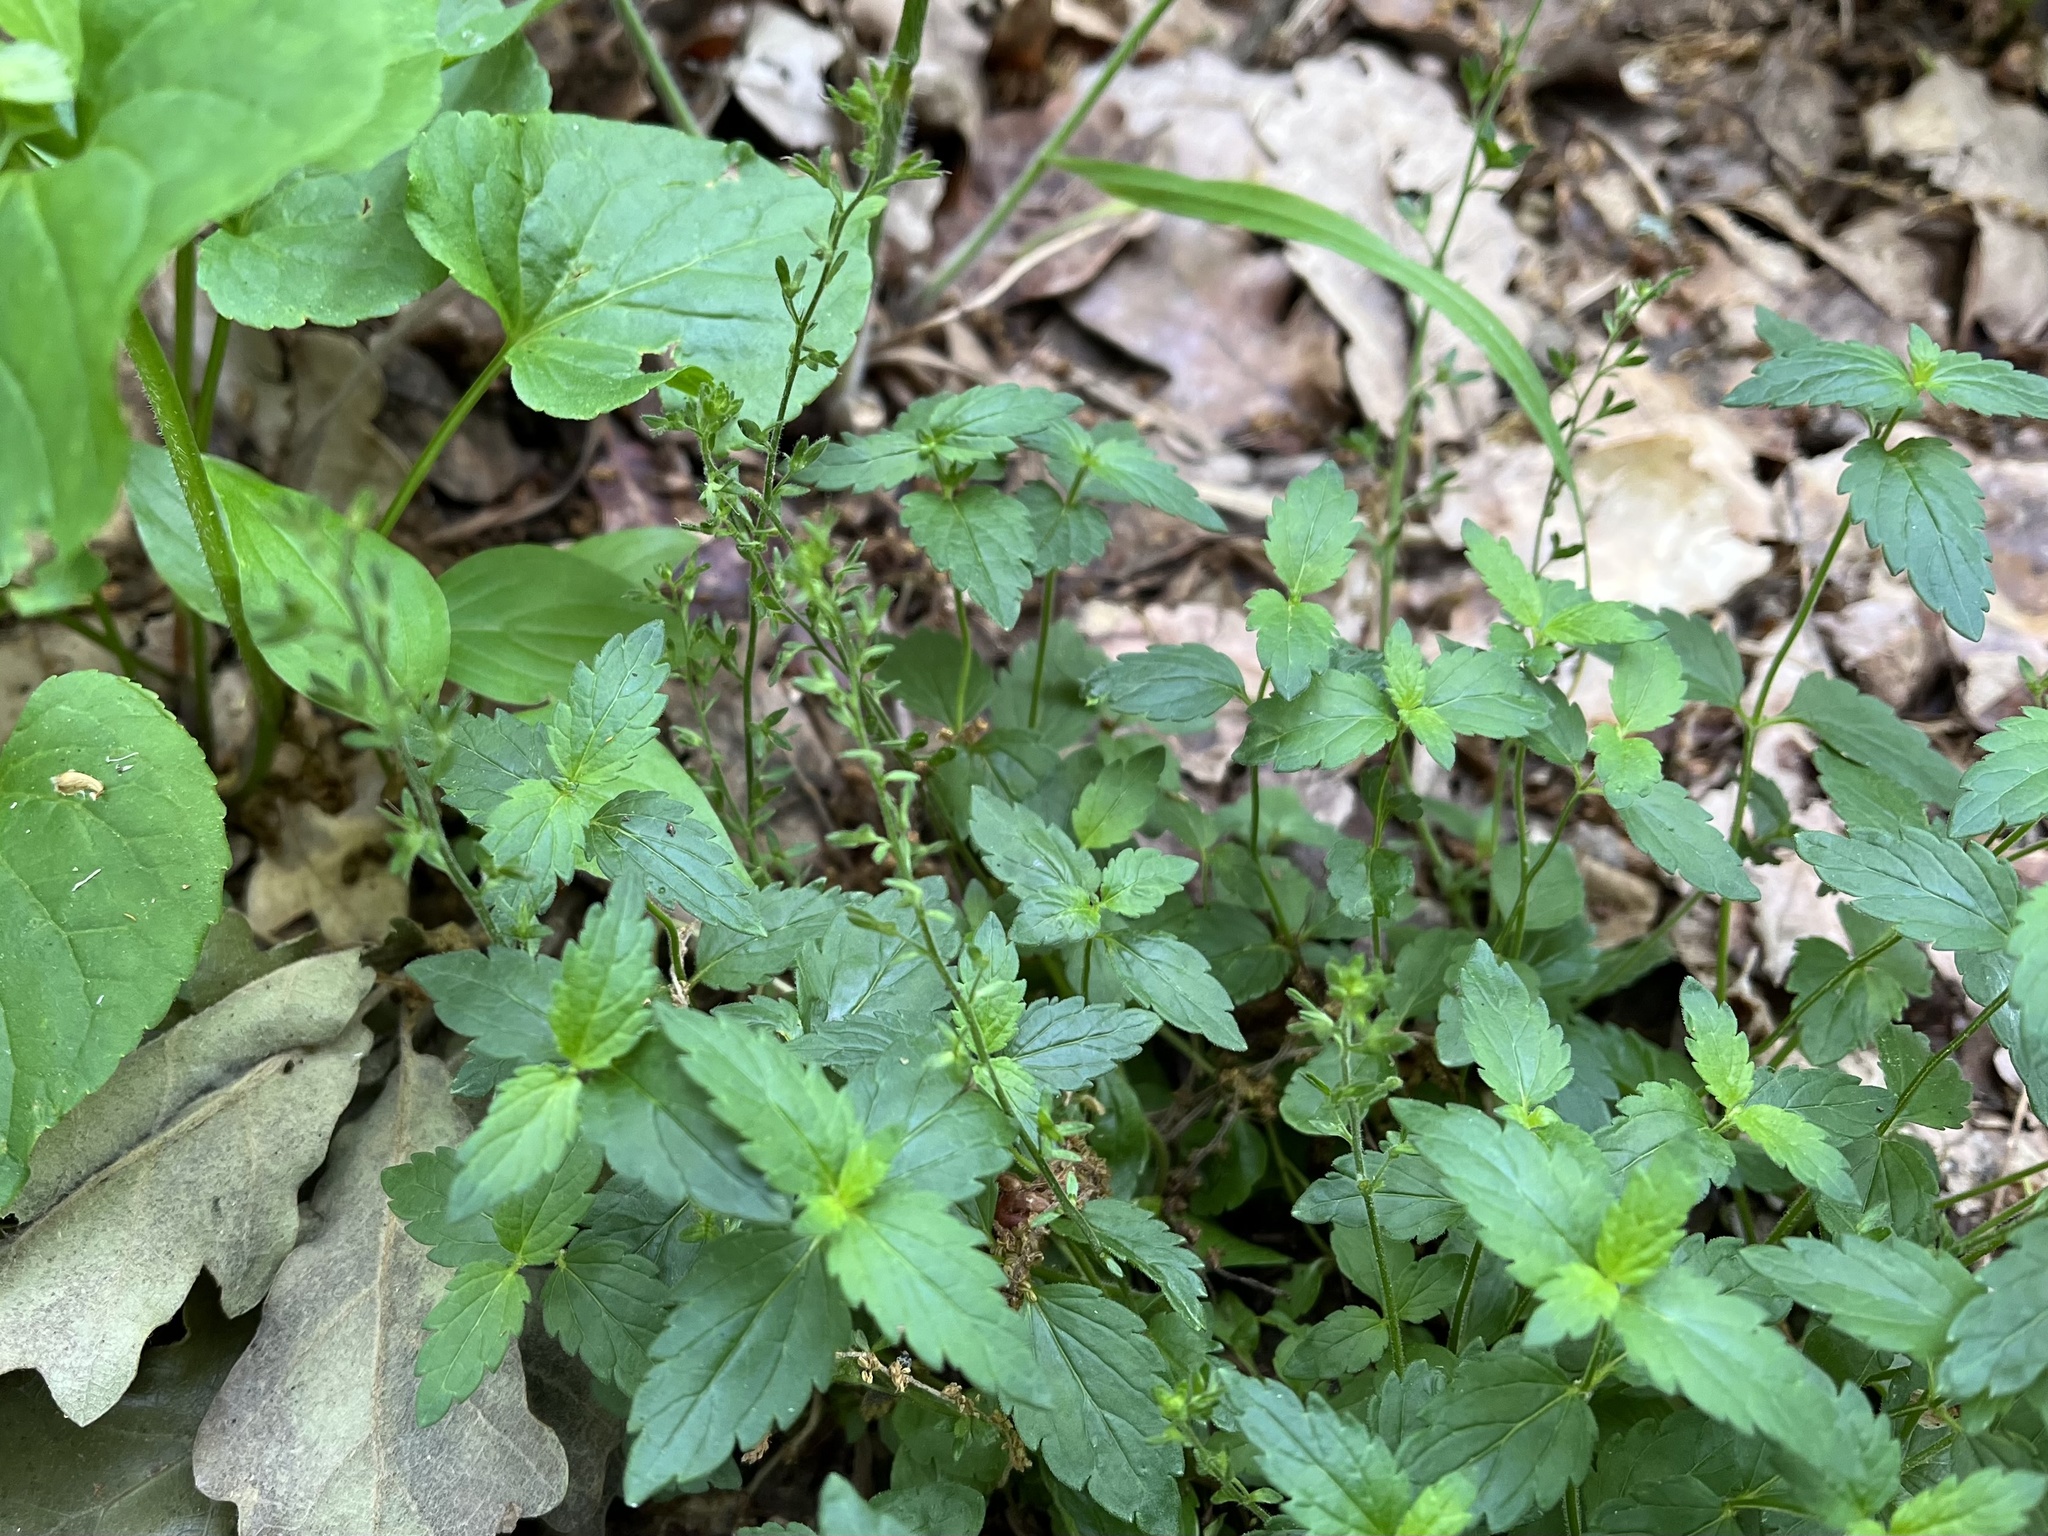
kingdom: Plantae
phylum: Tracheophyta
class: Magnoliopsida
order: Lamiales
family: Plantaginaceae
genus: Veronica
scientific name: Veronica chamaedrys
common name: Germander speedwell
